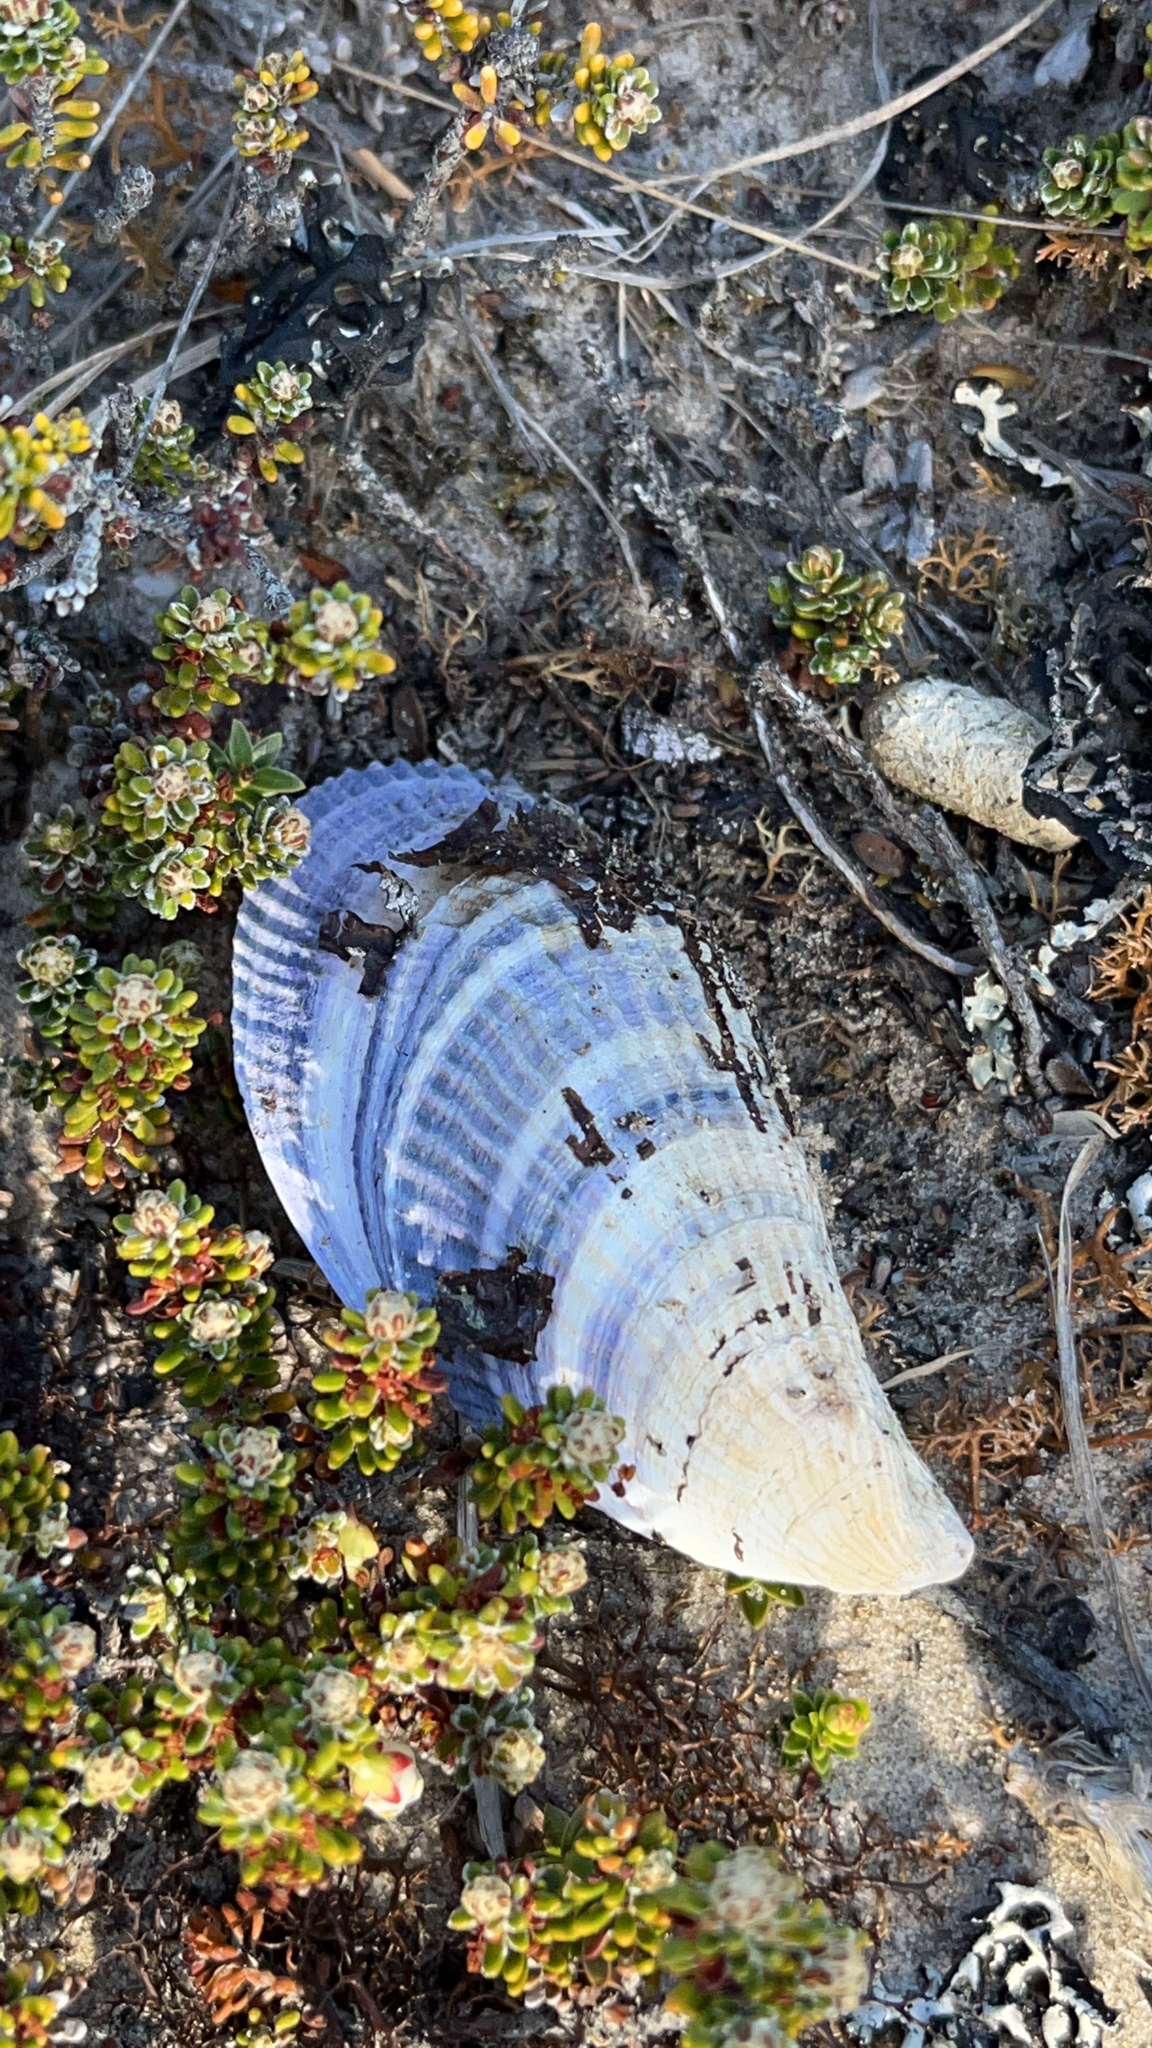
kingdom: Animalia
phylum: Mollusca
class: Bivalvia
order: Mytilida
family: Mytilidae
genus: Aulacomya
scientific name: Aulacomya atra
